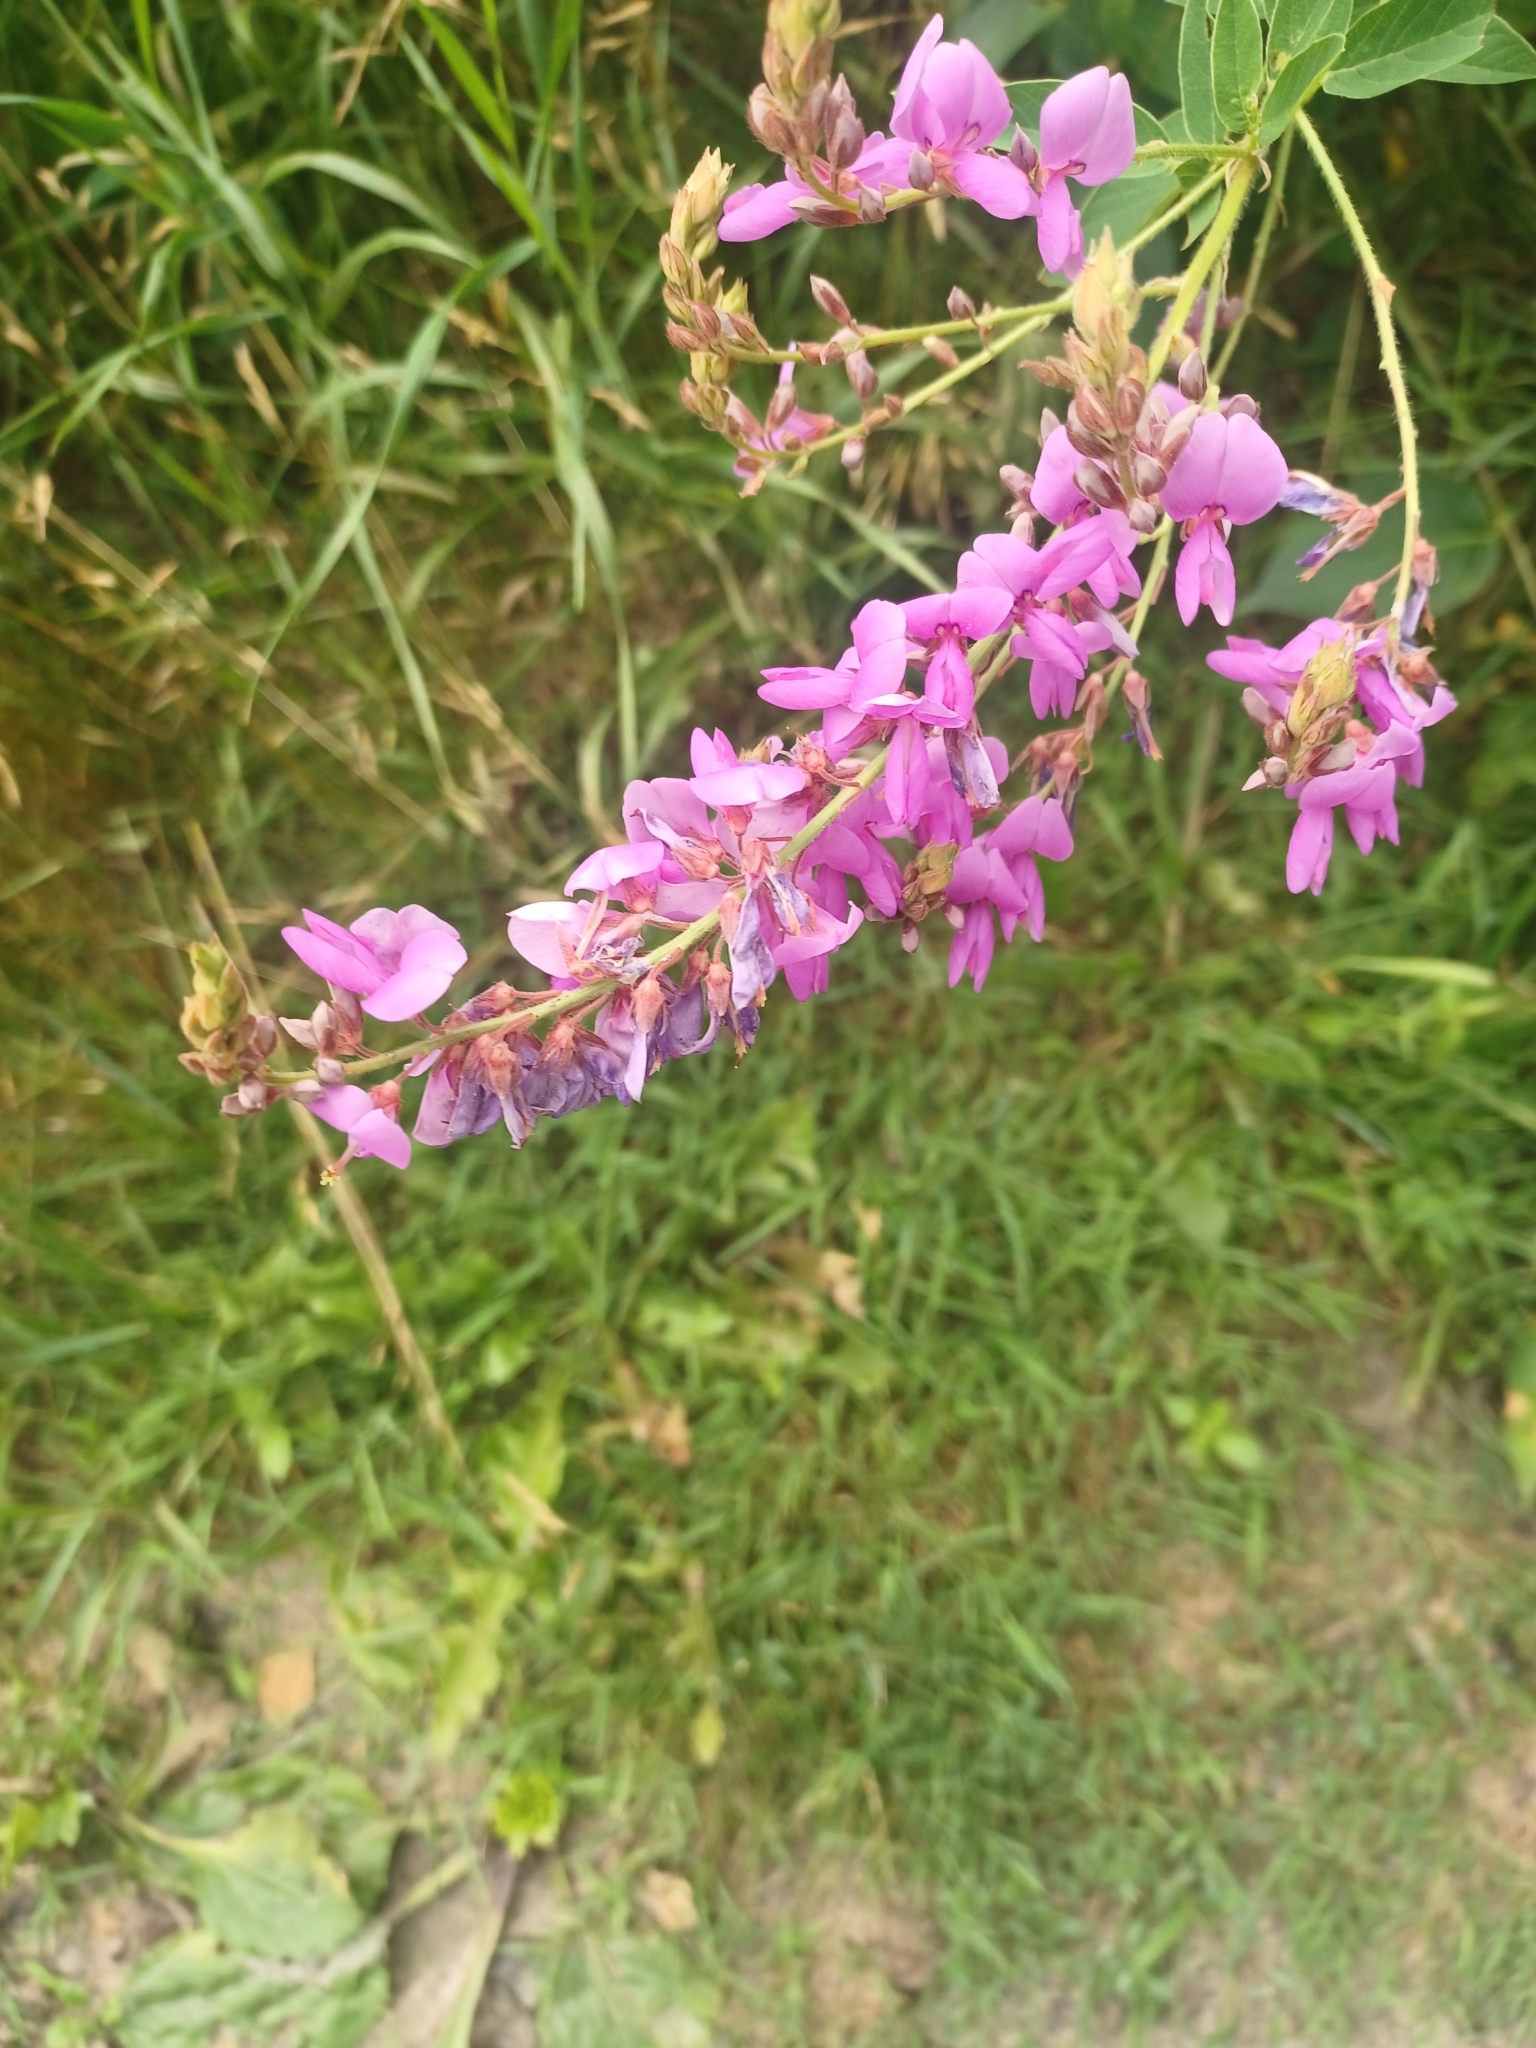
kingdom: Plantae
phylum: Tracheophyta
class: Magnoliopsida
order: Fabales
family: Fabaceae
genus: Desmodium
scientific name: Desmodium canadense
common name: Canada tick-trefoil
